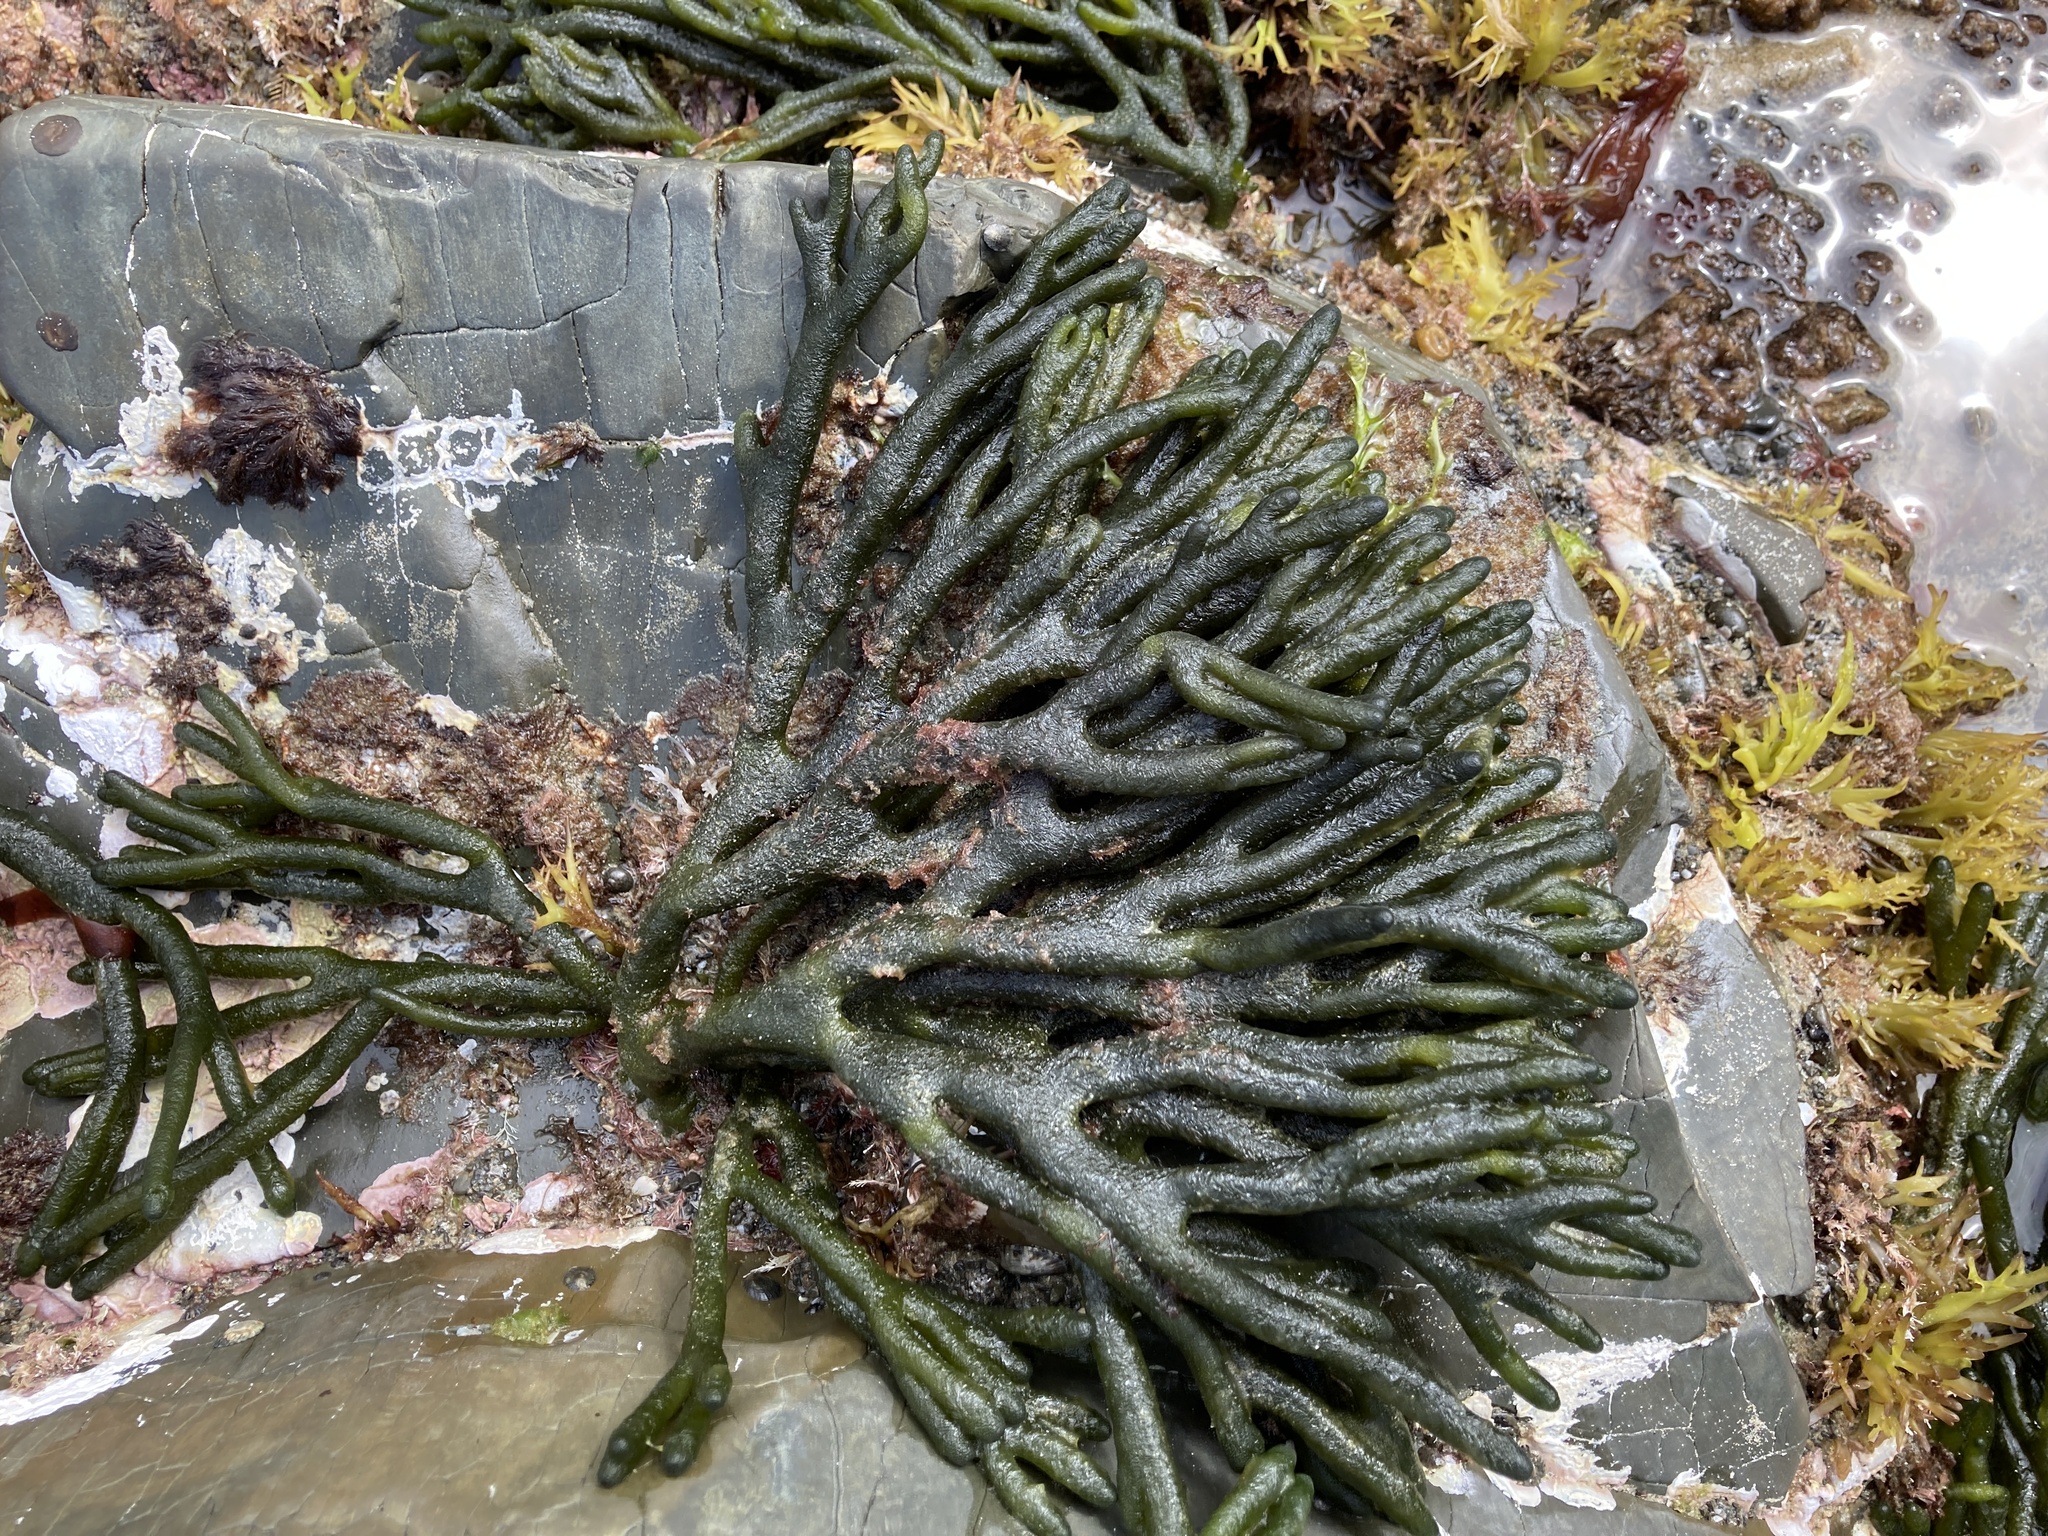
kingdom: Plantae
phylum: Chlorophyta
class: Ulvophyceae
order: Bryopsidales
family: Codiaceae
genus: Codium
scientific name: Codium fragile
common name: Dead man's fingers
